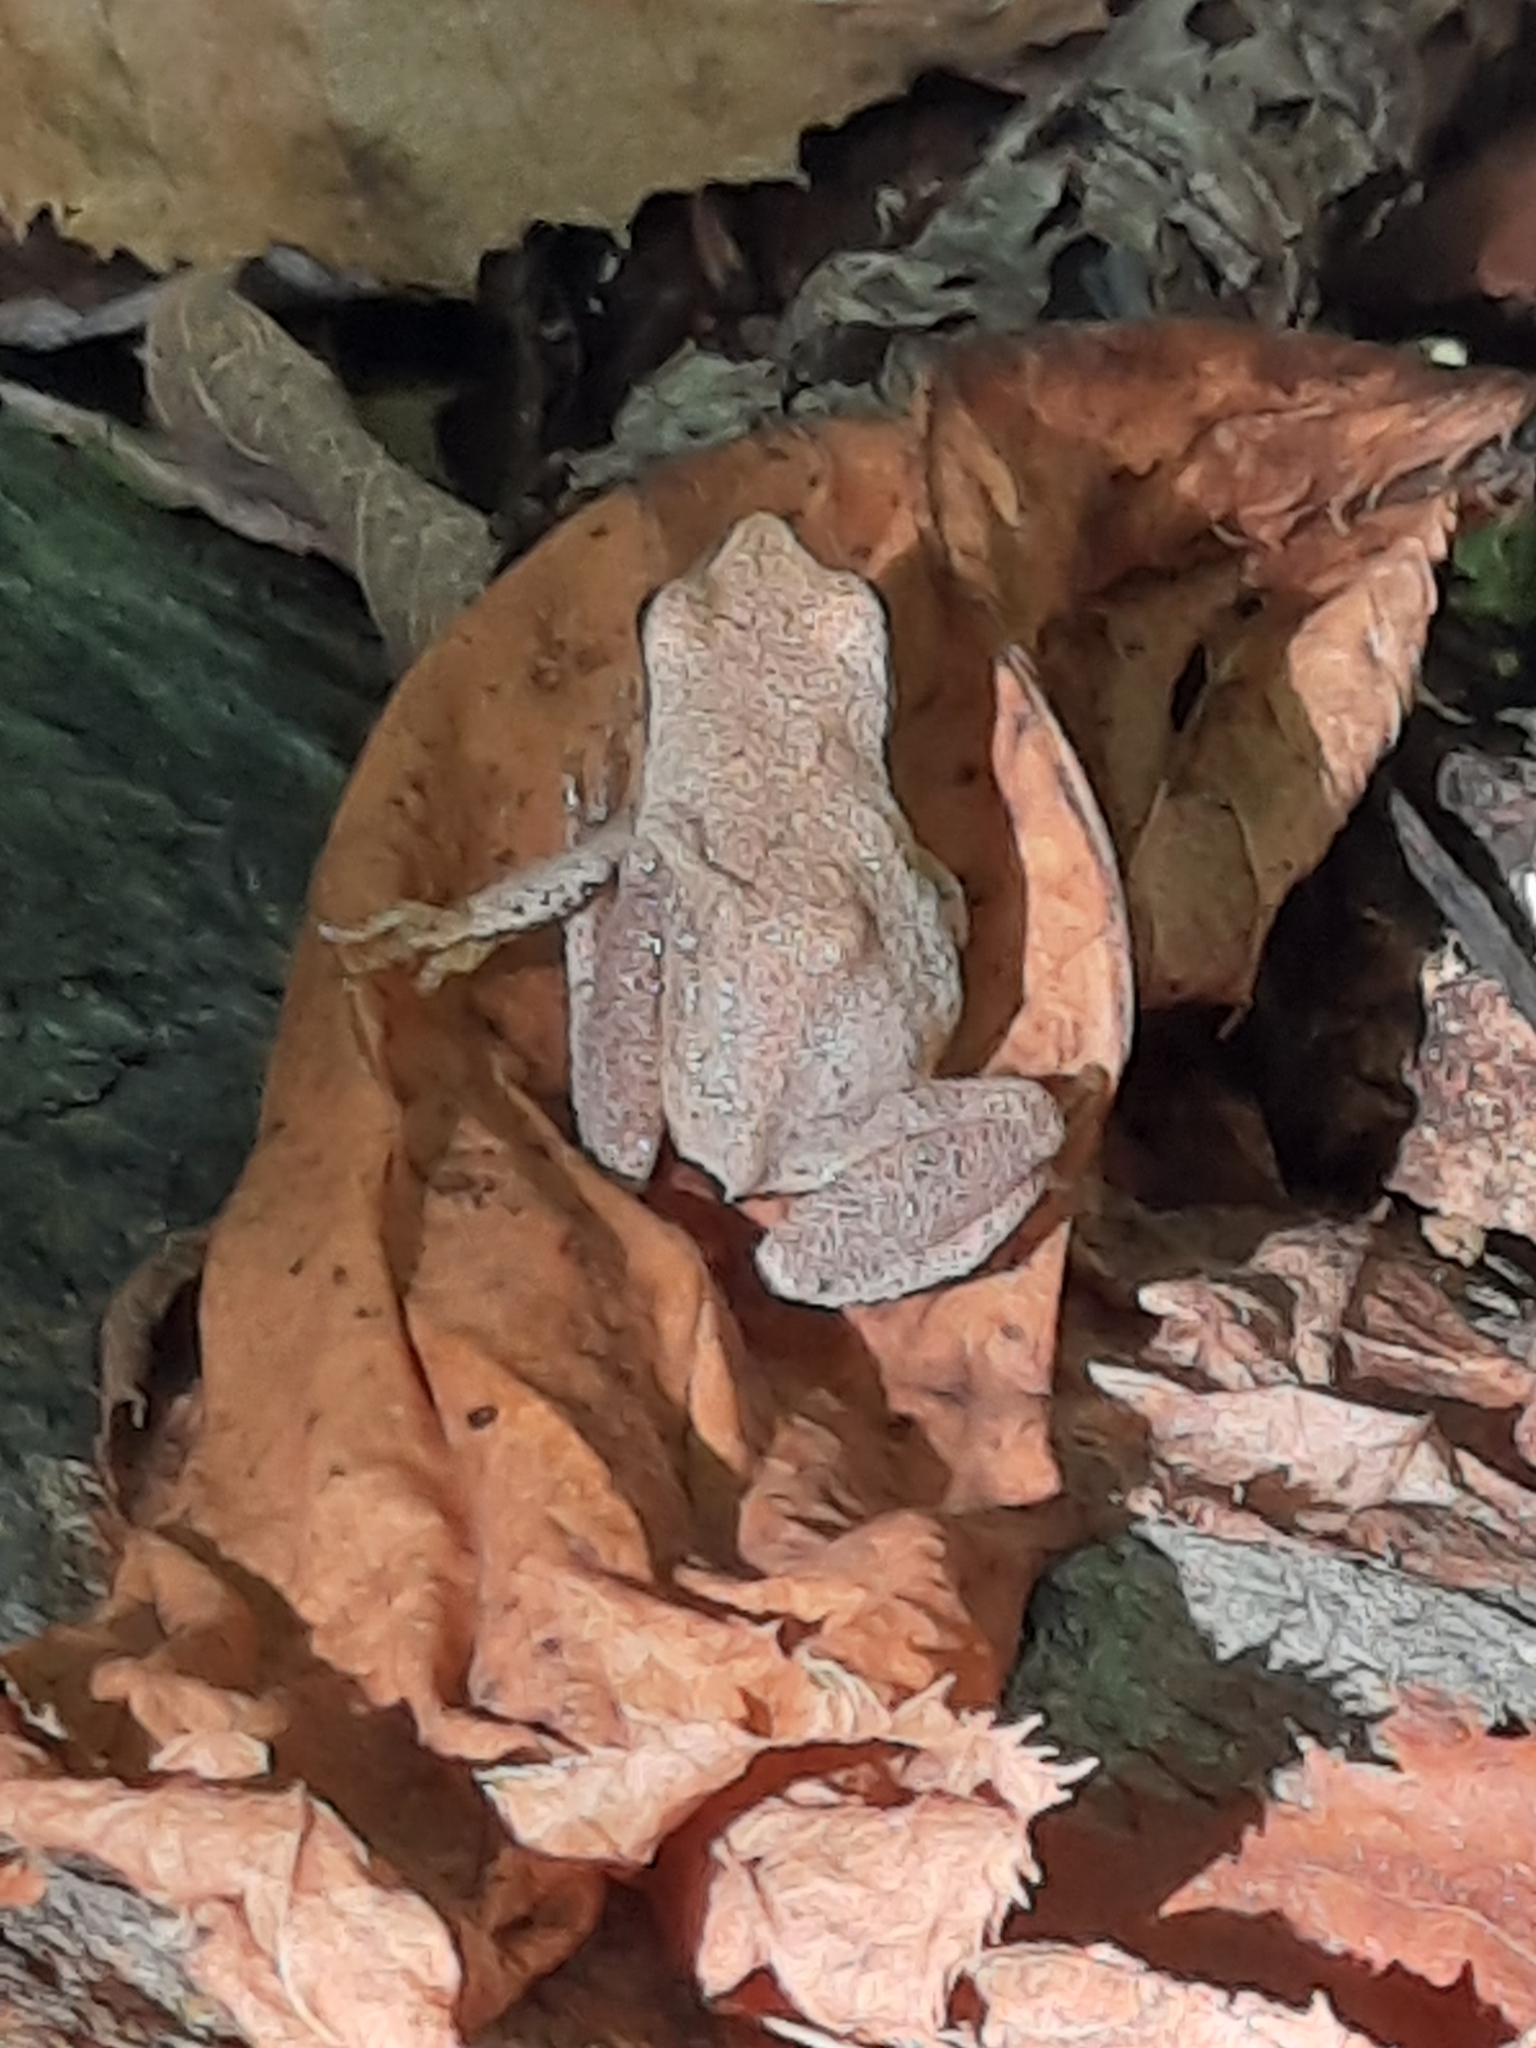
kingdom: Animalia
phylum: Chordata
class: Amphibia
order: Anura
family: Hylidae
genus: Pseudacris
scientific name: Pseudacris crucifer
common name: Spring peeper
